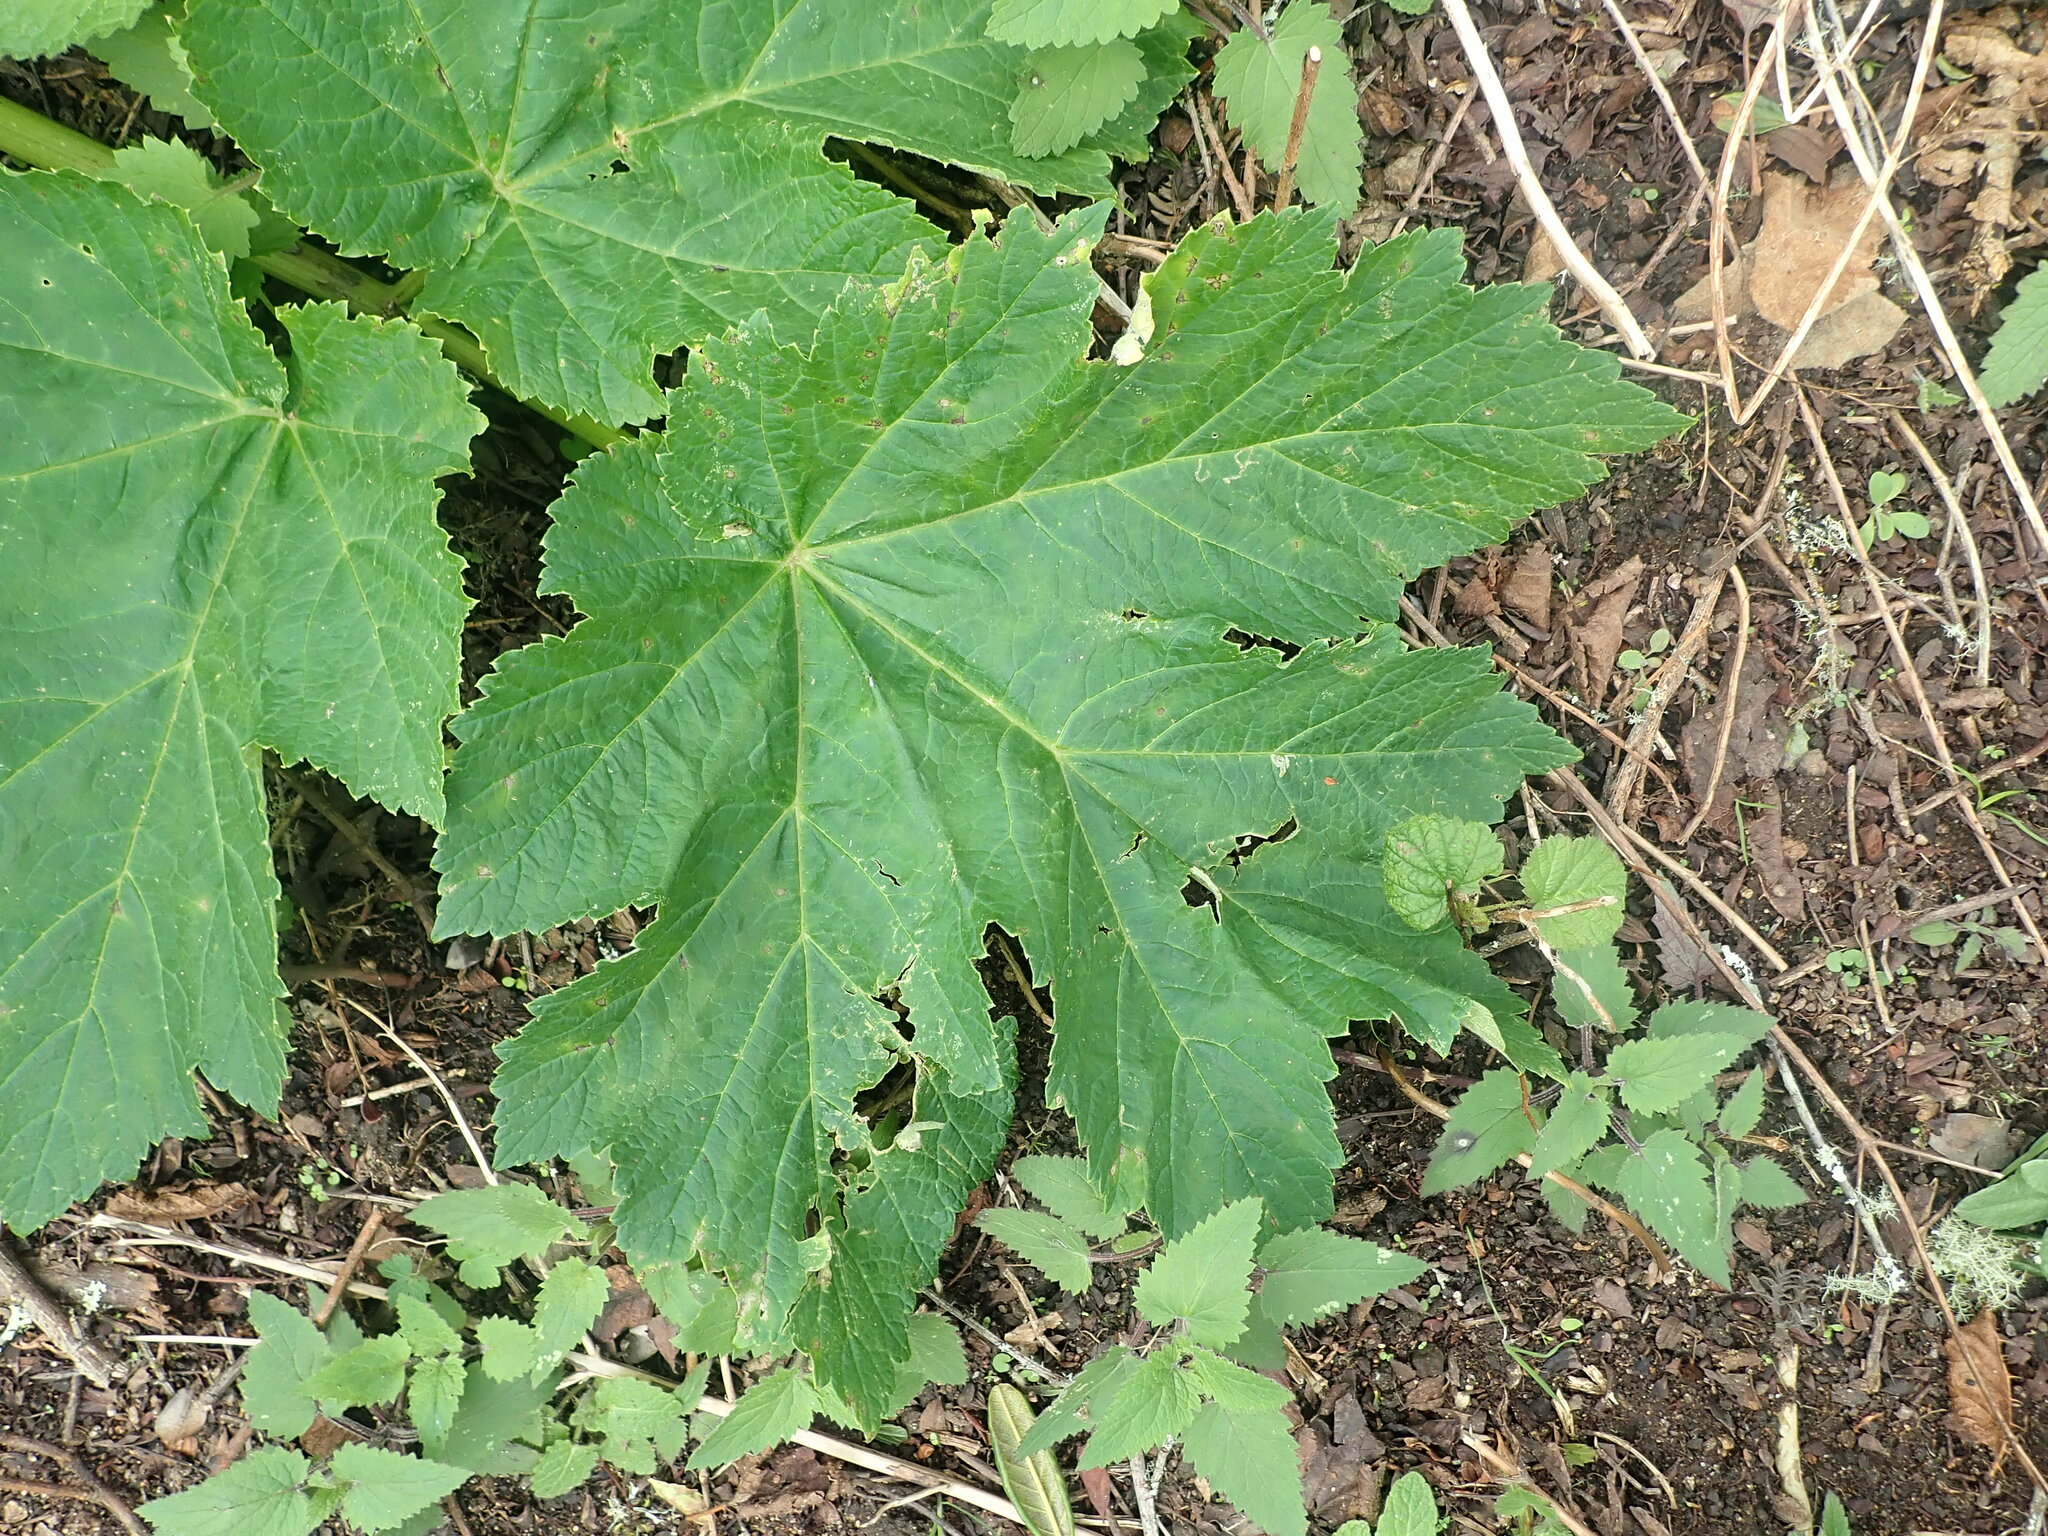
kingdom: Plantae
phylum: Tracheophyta
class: Magnoliopsida
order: Apiales
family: Apiaceae
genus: Heracleum
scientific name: Heracleum maximum
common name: American cow parsnip
